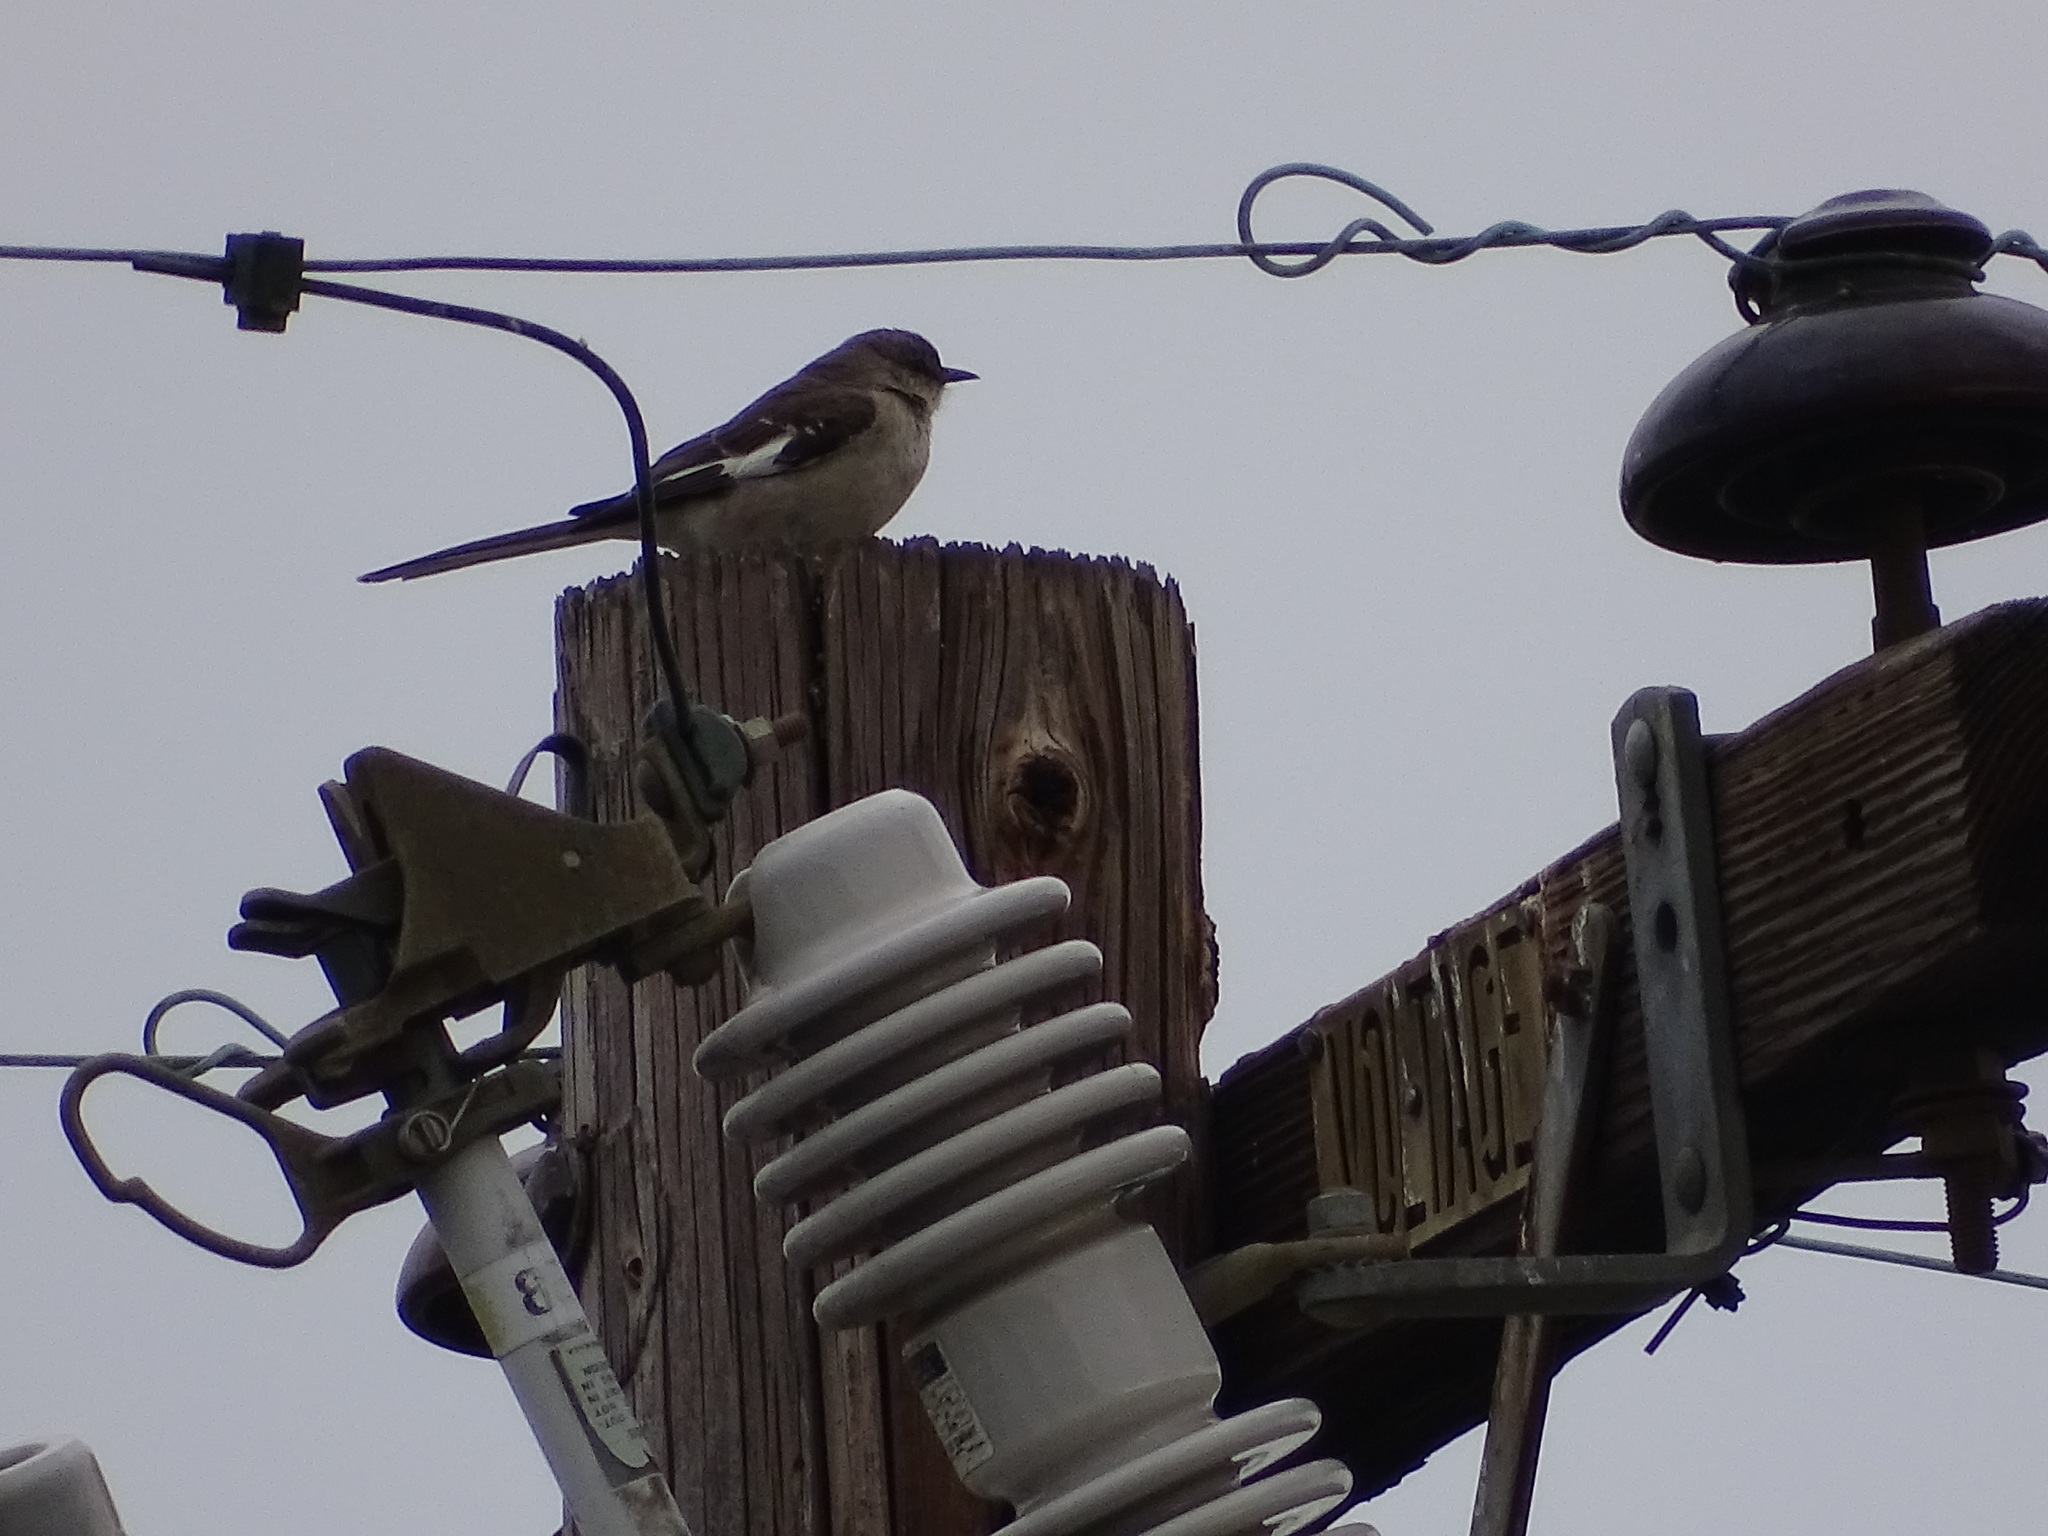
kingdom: Animalia
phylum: Chordata
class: Aves
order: Passeriformes
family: Mimidae
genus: Mimus
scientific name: Mimus polyglottos
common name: Northern mockingbird
